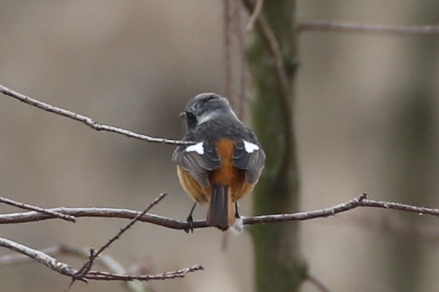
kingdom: Animalia
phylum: Chordata
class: Aves
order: Passeriformes
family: Muscicapidae
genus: Phoenicurus
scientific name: Phoenicurus auroreus
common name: Daurian redstart
